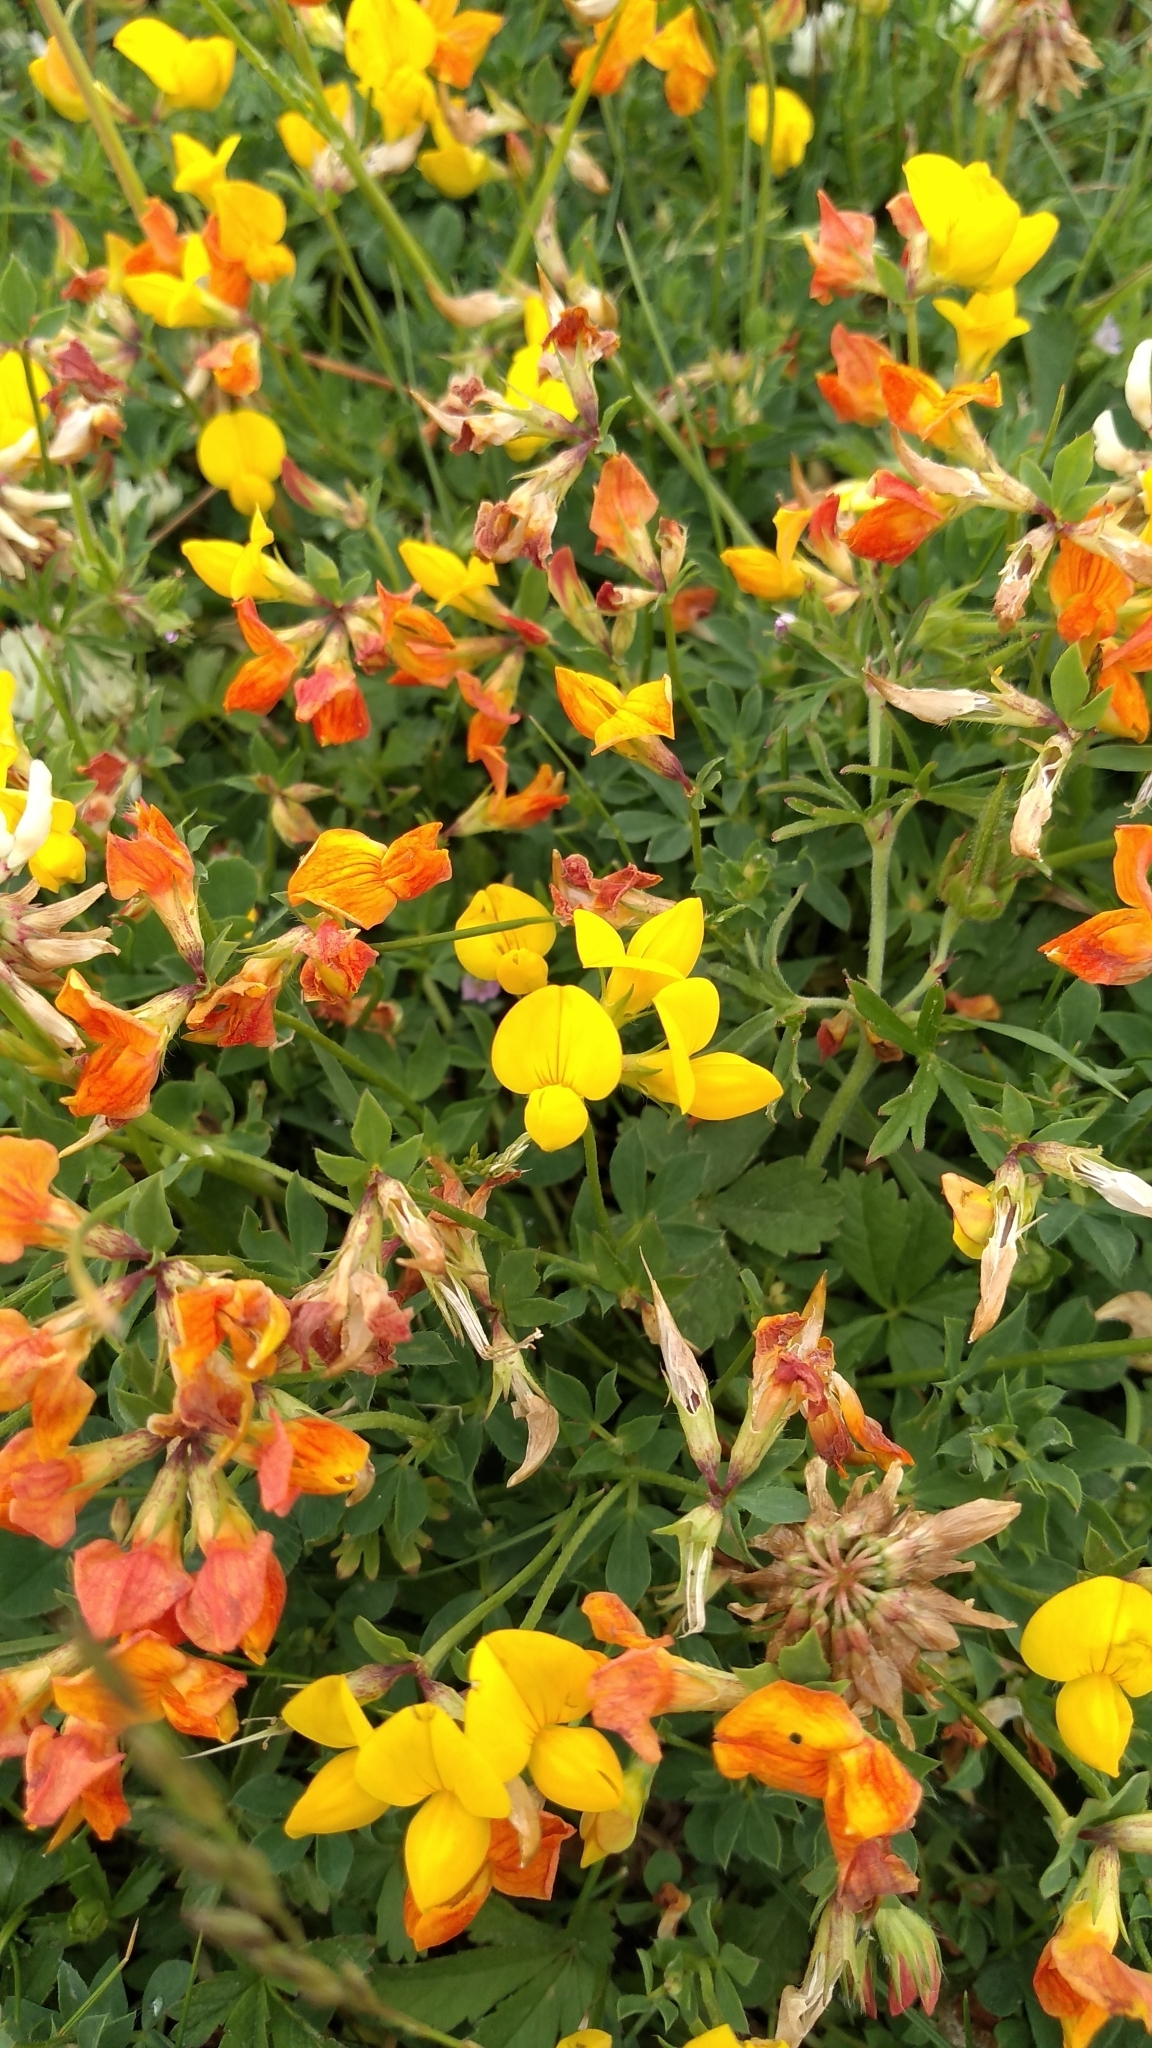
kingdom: Plantae
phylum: Tracheophyta
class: Magnoliopsida
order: Fabales
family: Fabaceae
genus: Lotus
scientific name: Lotus corniculatus
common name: Common bird's-foot-trefoil
